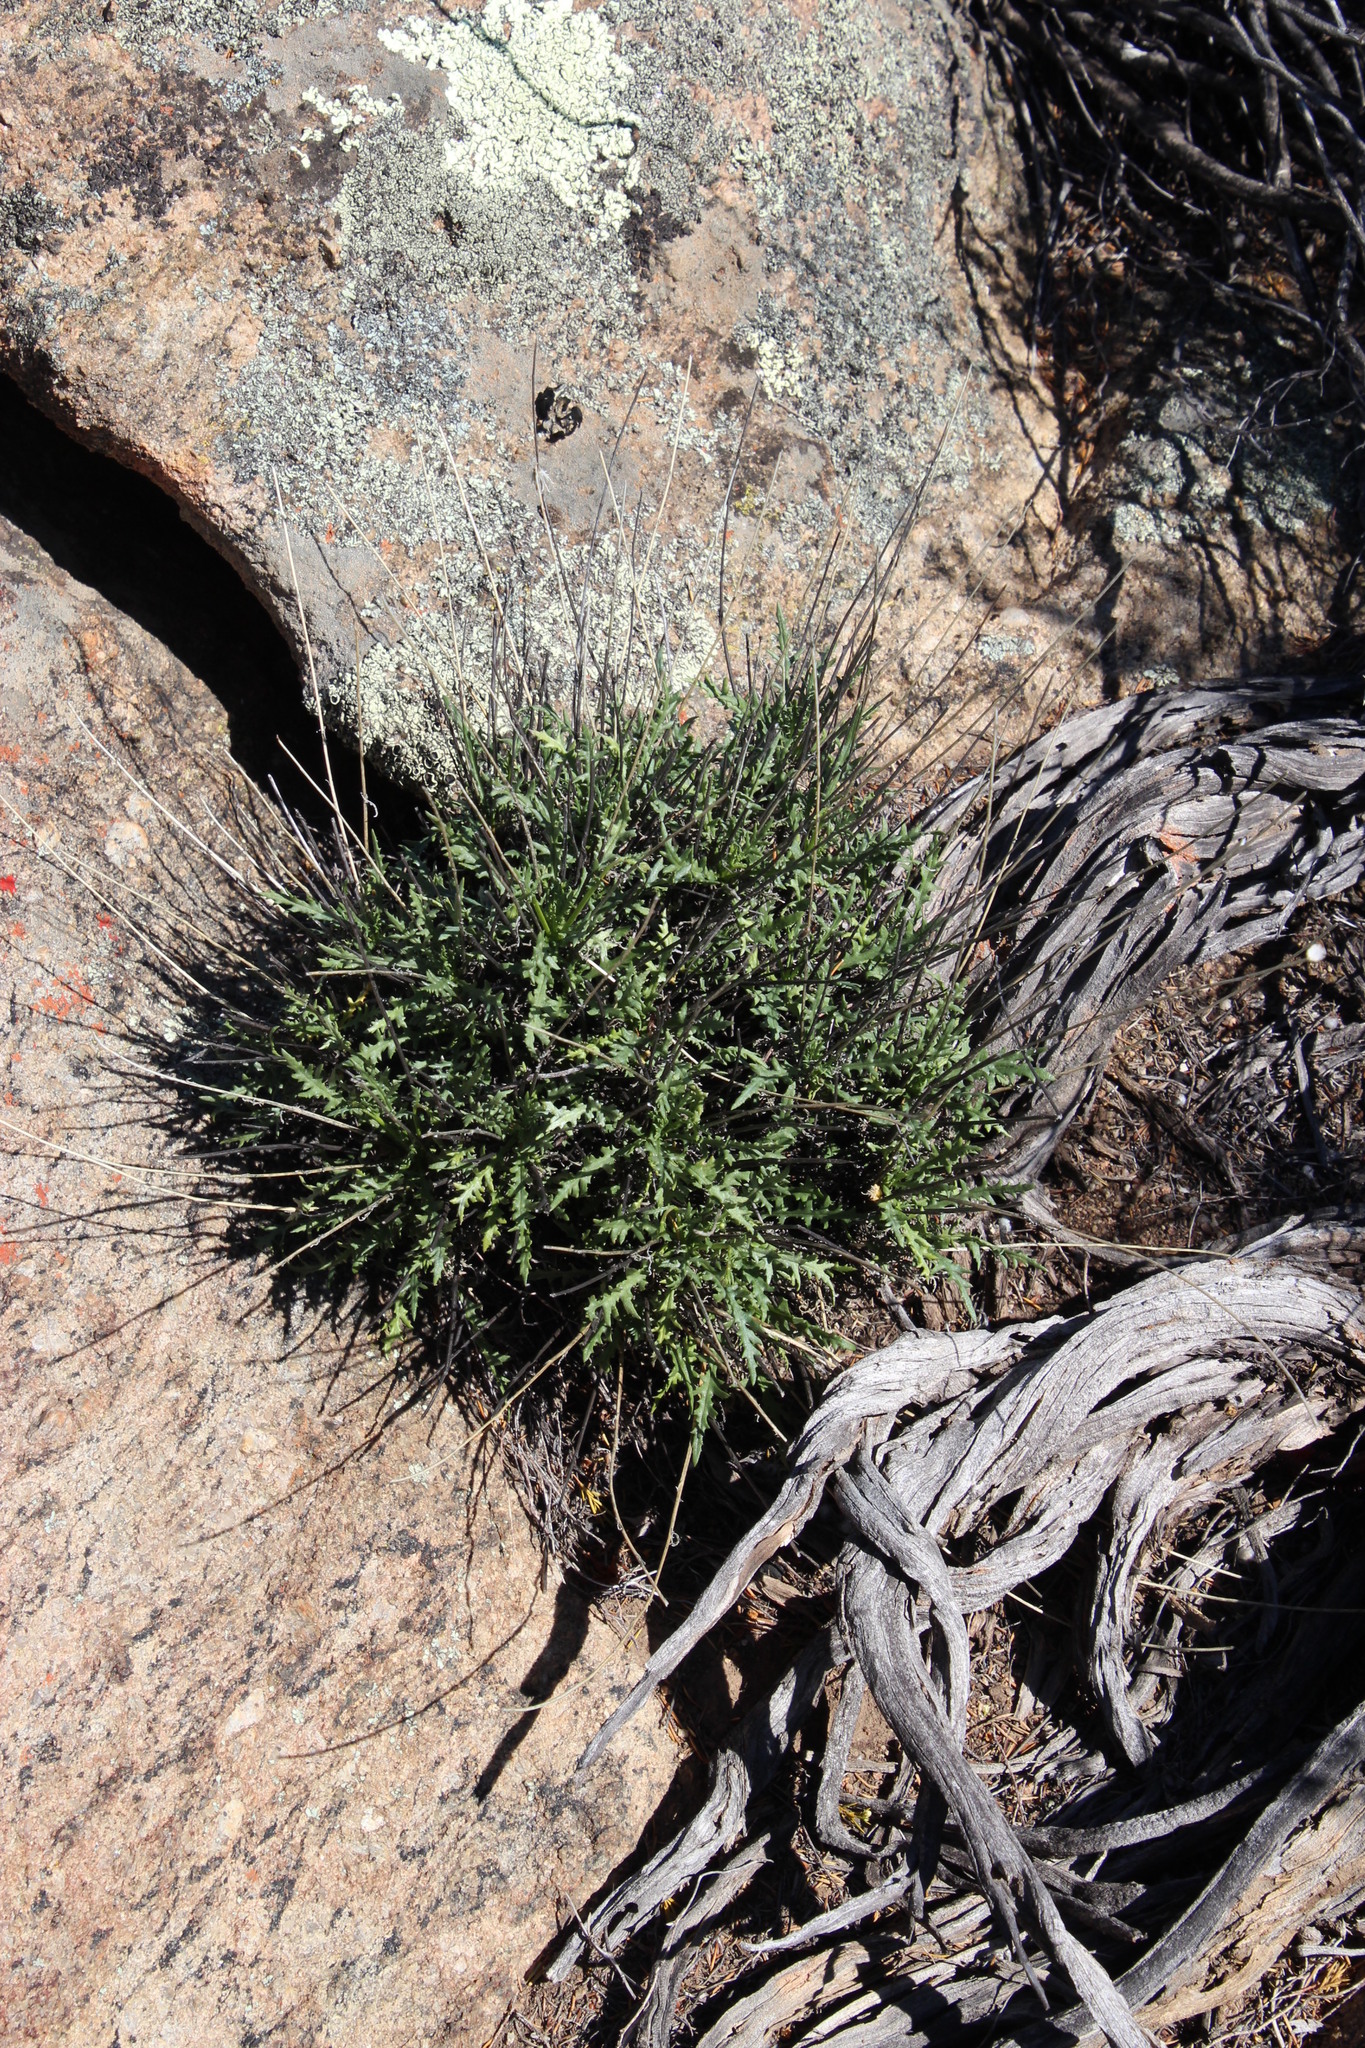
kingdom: Plantae
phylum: Tracheophyta
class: Magnoliopsida
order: Asterales
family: Asteraceae
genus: Bolandia
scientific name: Bolandia glabrifolia
